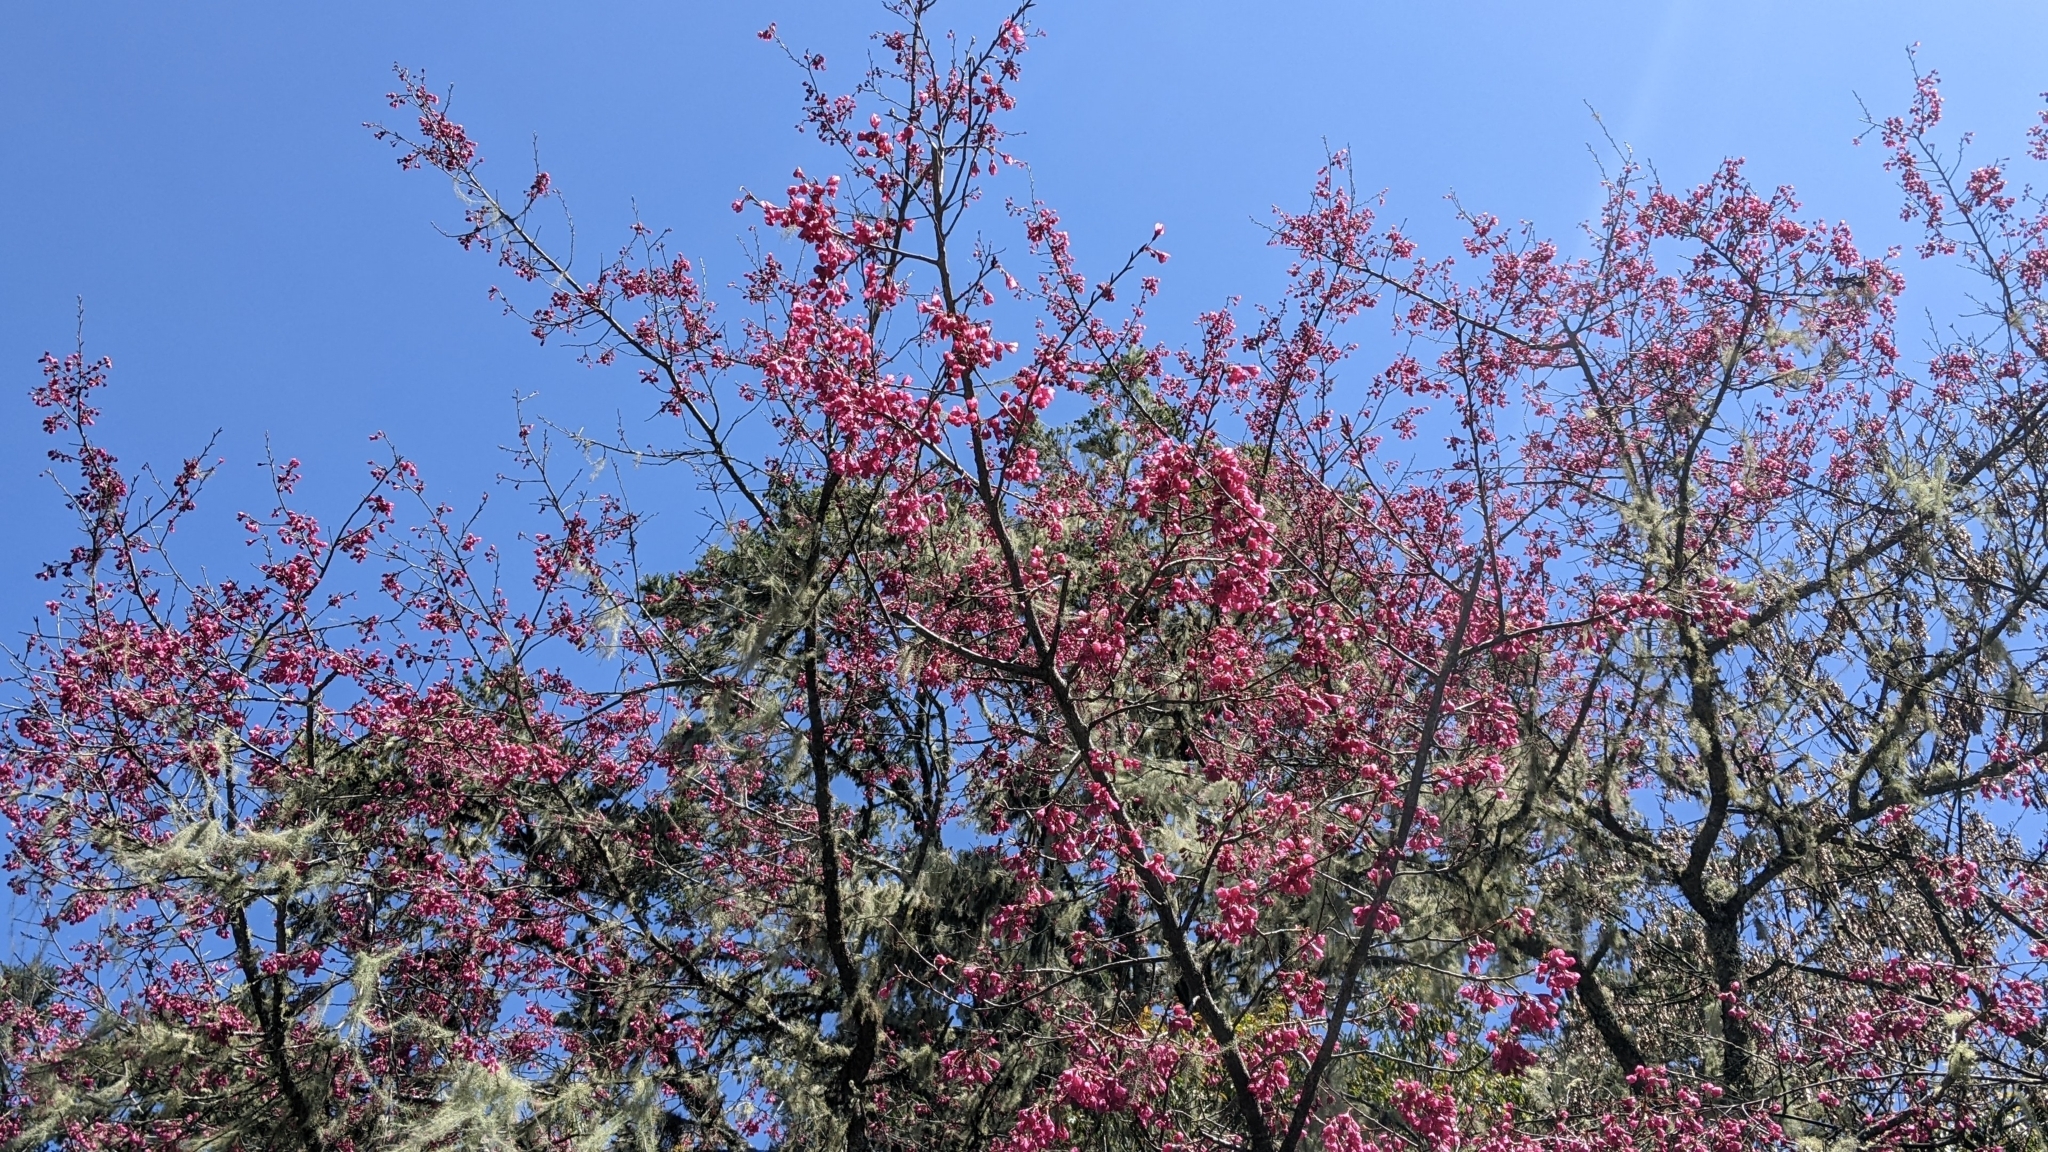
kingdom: Plantae
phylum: Tracheophyta
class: Magnoliopsida
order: Rosales
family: Rosaceae
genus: Prunus
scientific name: Prunus campanulata
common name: Taiwan flowering cherry
